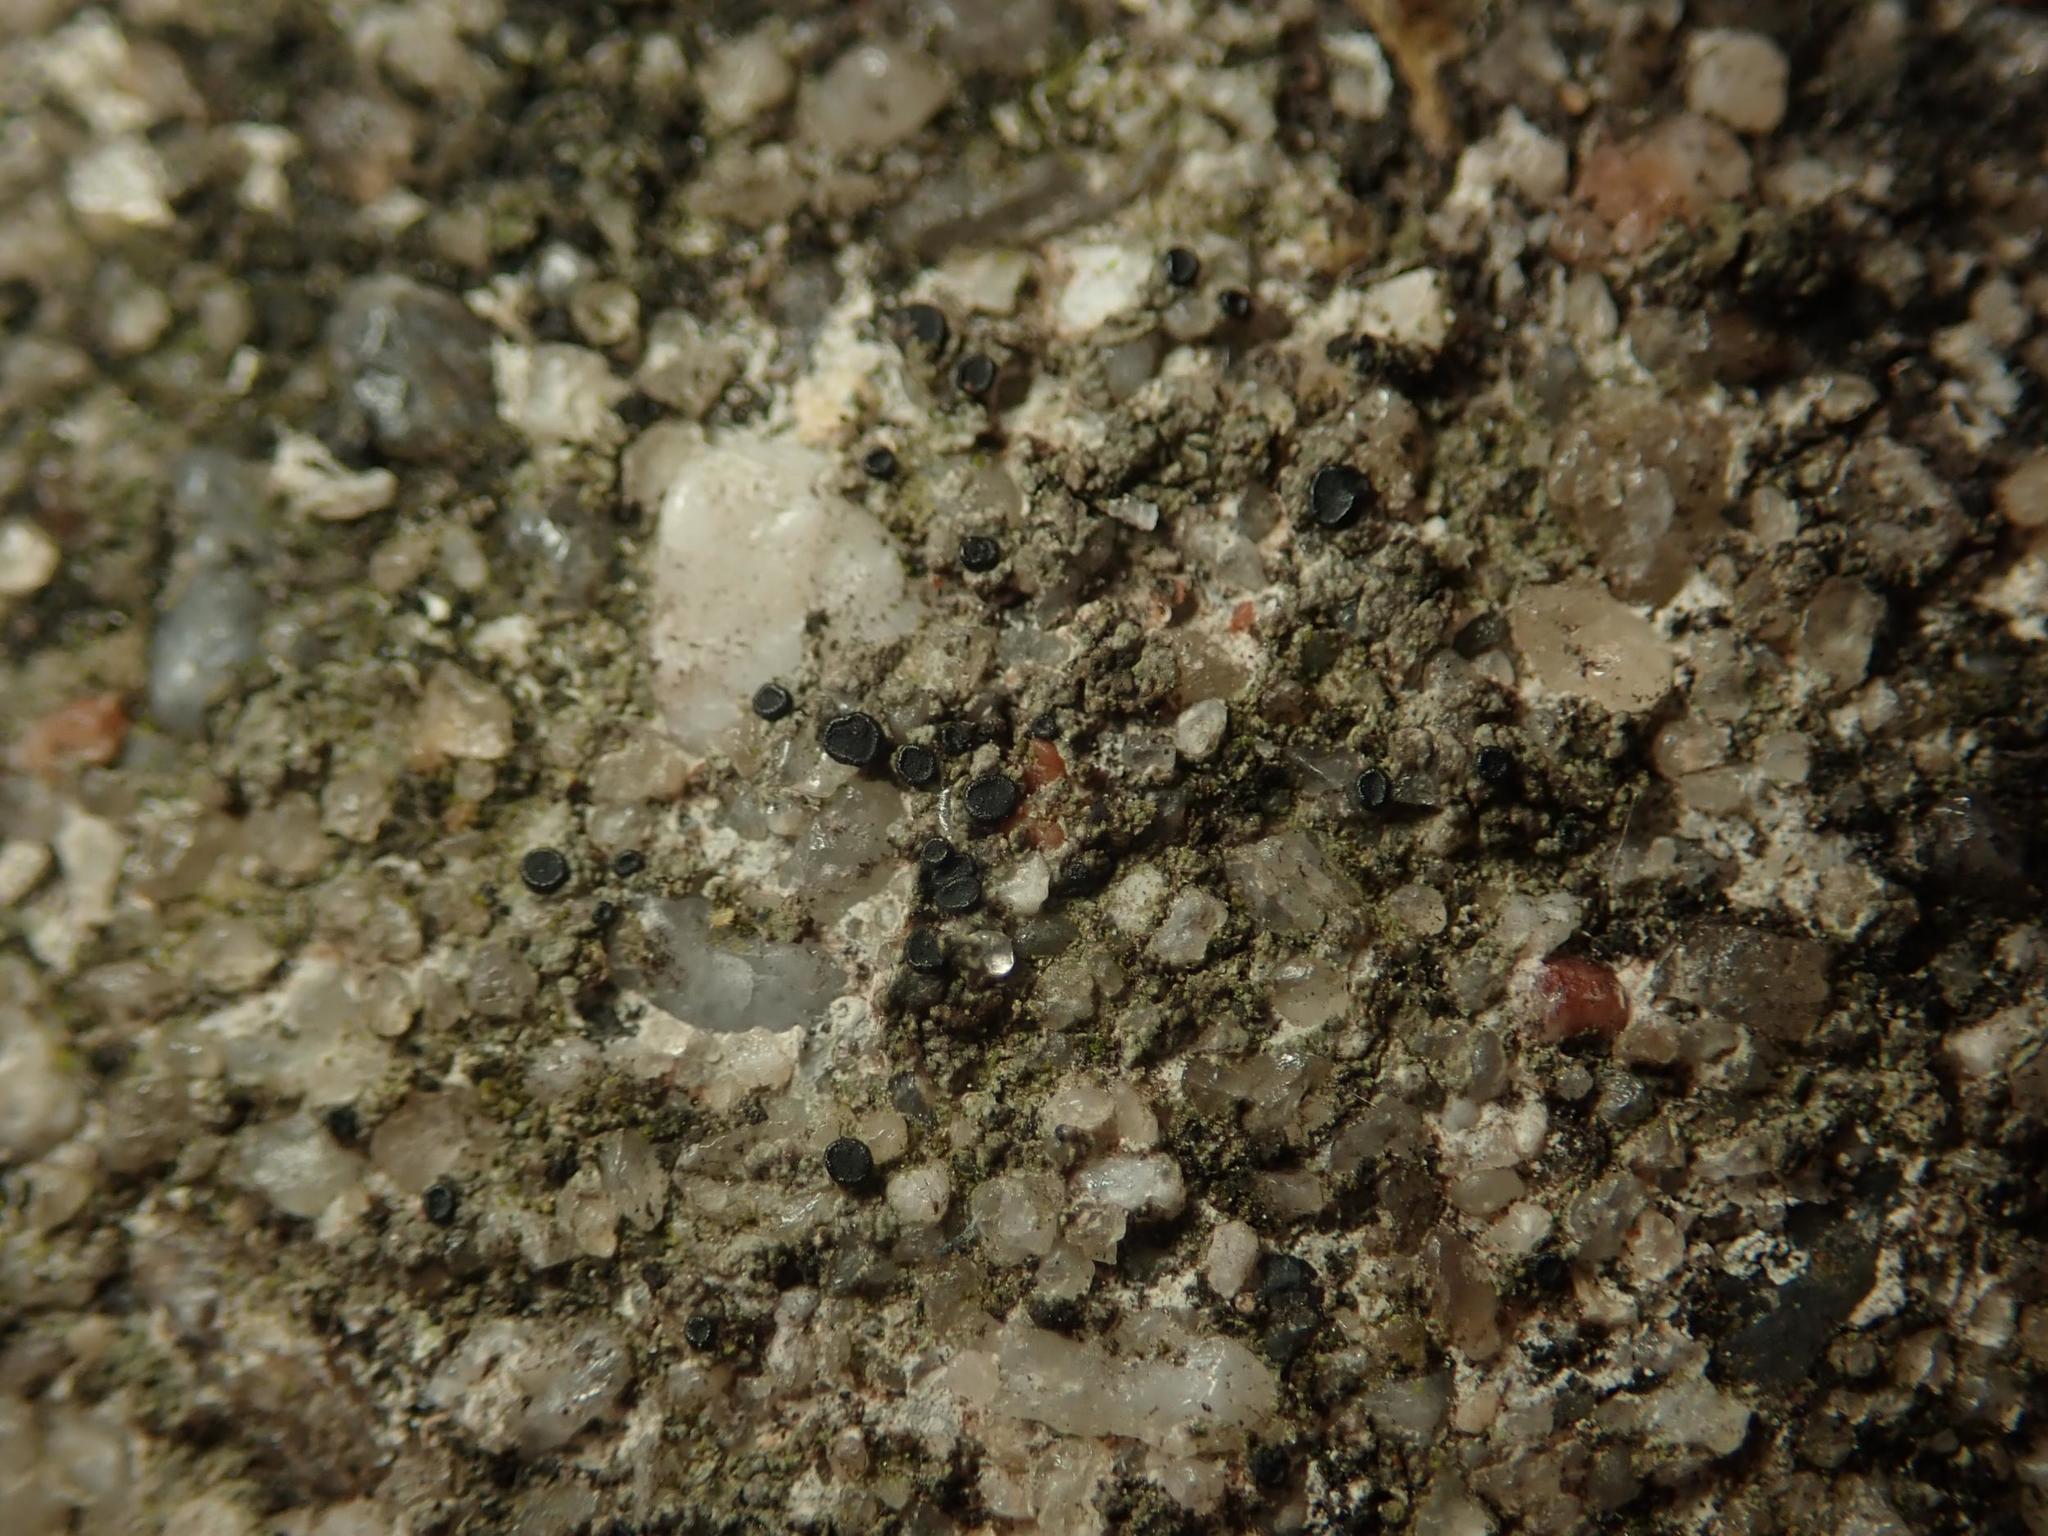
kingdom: Fungi
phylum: Ascomycota
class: Lecanoromycetes
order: Lecanorales
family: Lecanoraceae
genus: Lecidella
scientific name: Lecidella stigmatea
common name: Limestone disc lichen
